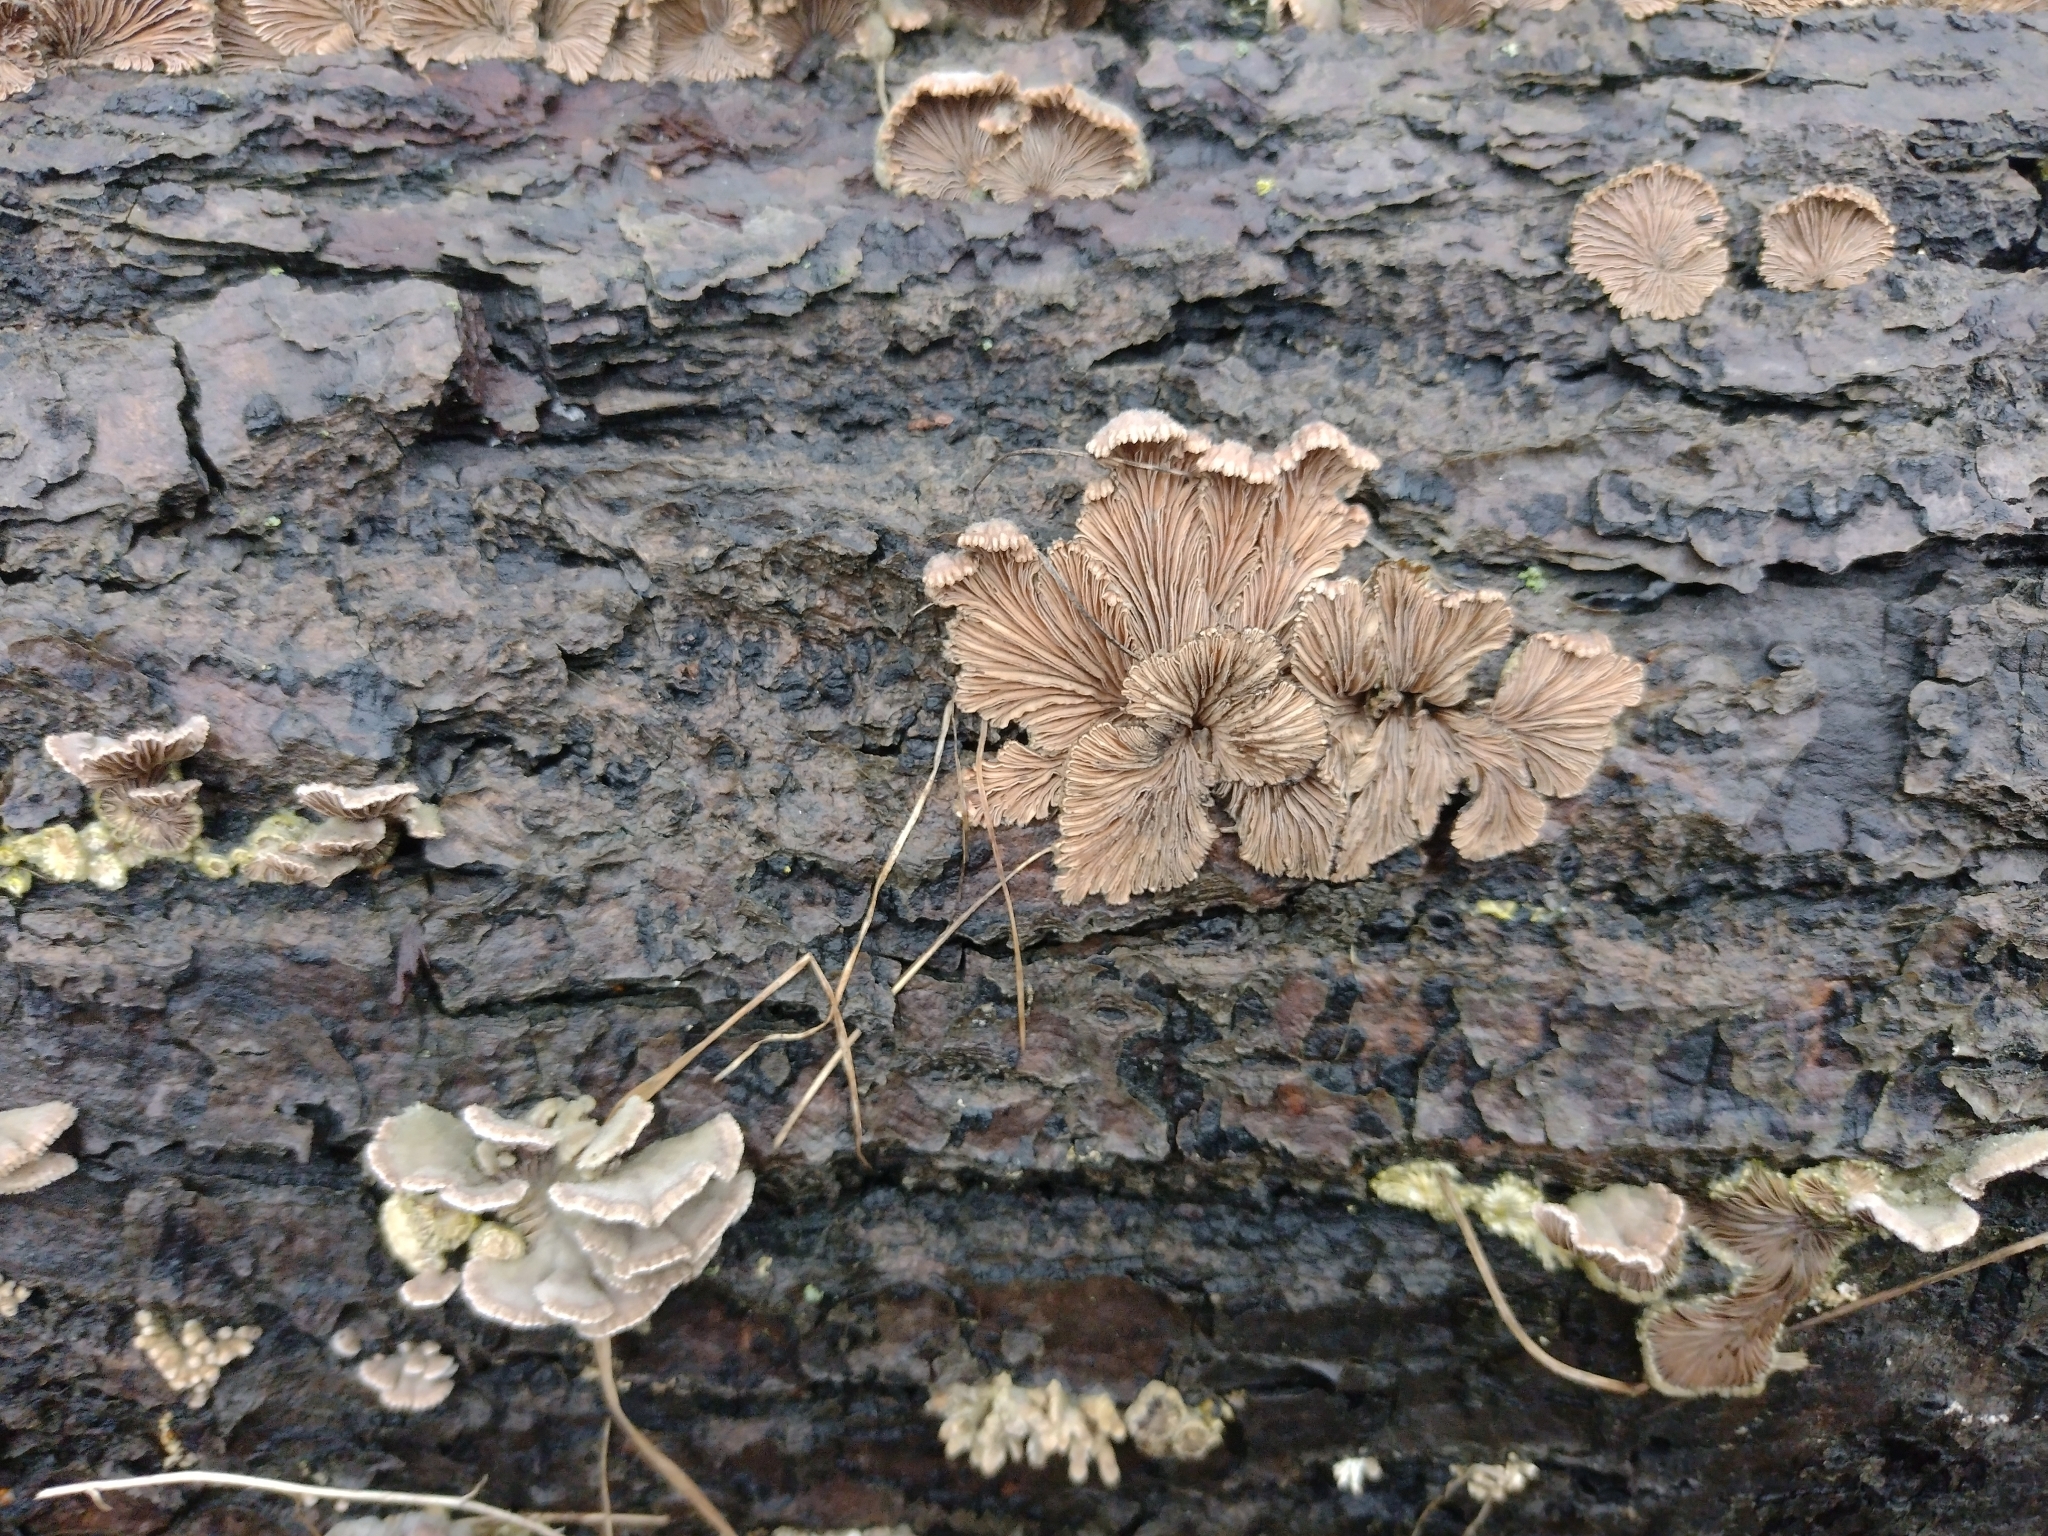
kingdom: Fungi
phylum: Basidiomycota
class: Agaricomycetes
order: Agaricales
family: Schizophyllaceae
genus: Schizophyllum
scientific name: Schizophyllum commune
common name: Common porecrust
